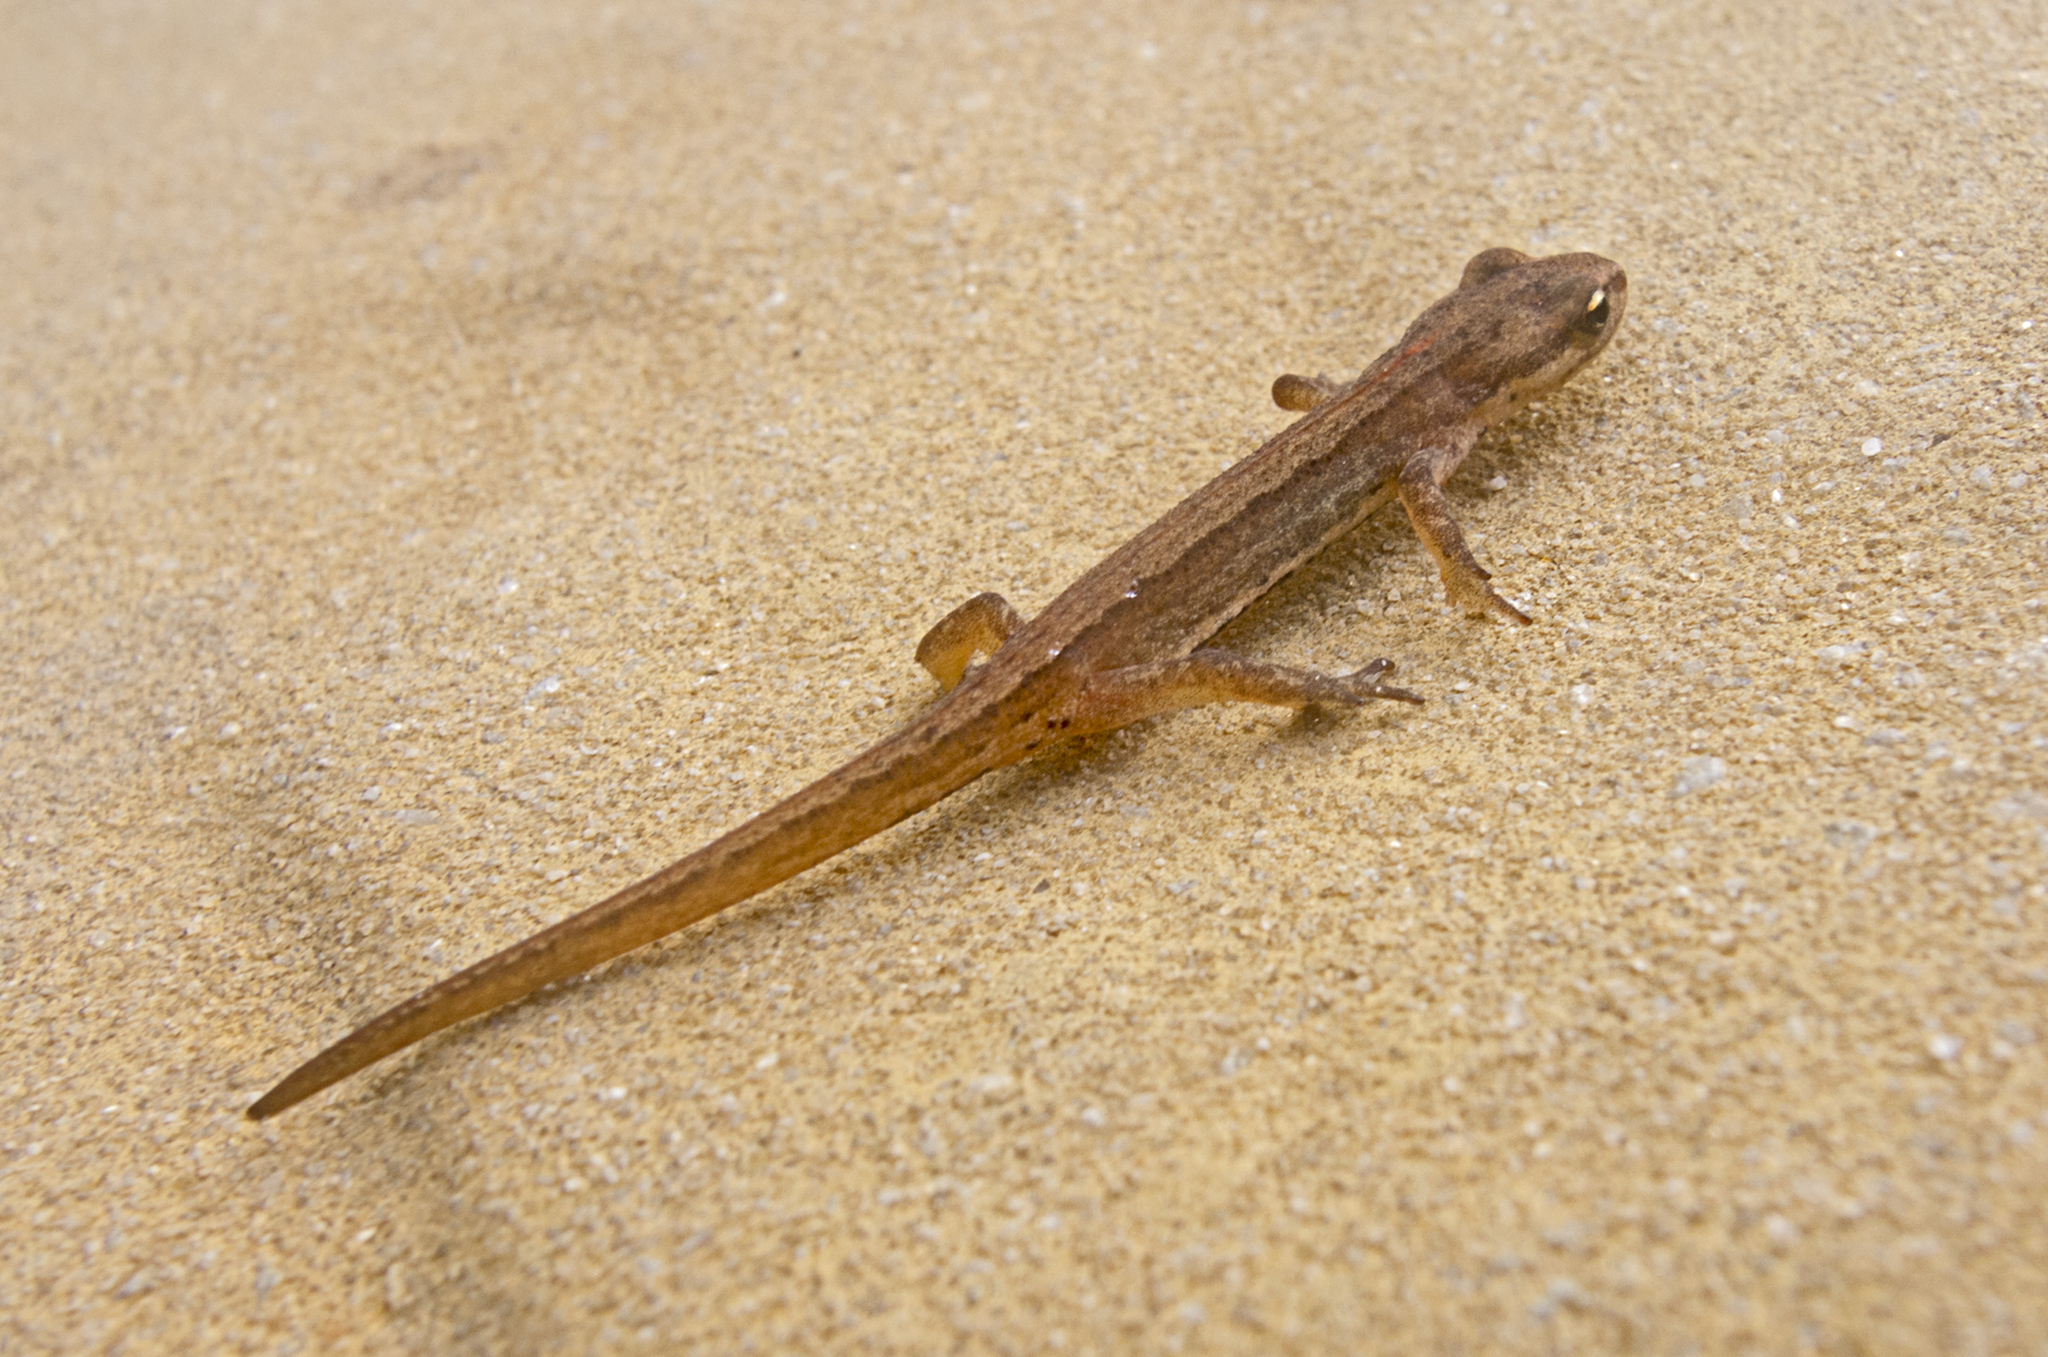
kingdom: Animalia
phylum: Chordata
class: Amphibia
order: Caudata
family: Salamandridae
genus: Lissotriton
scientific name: Lissotriton schmidtleri
